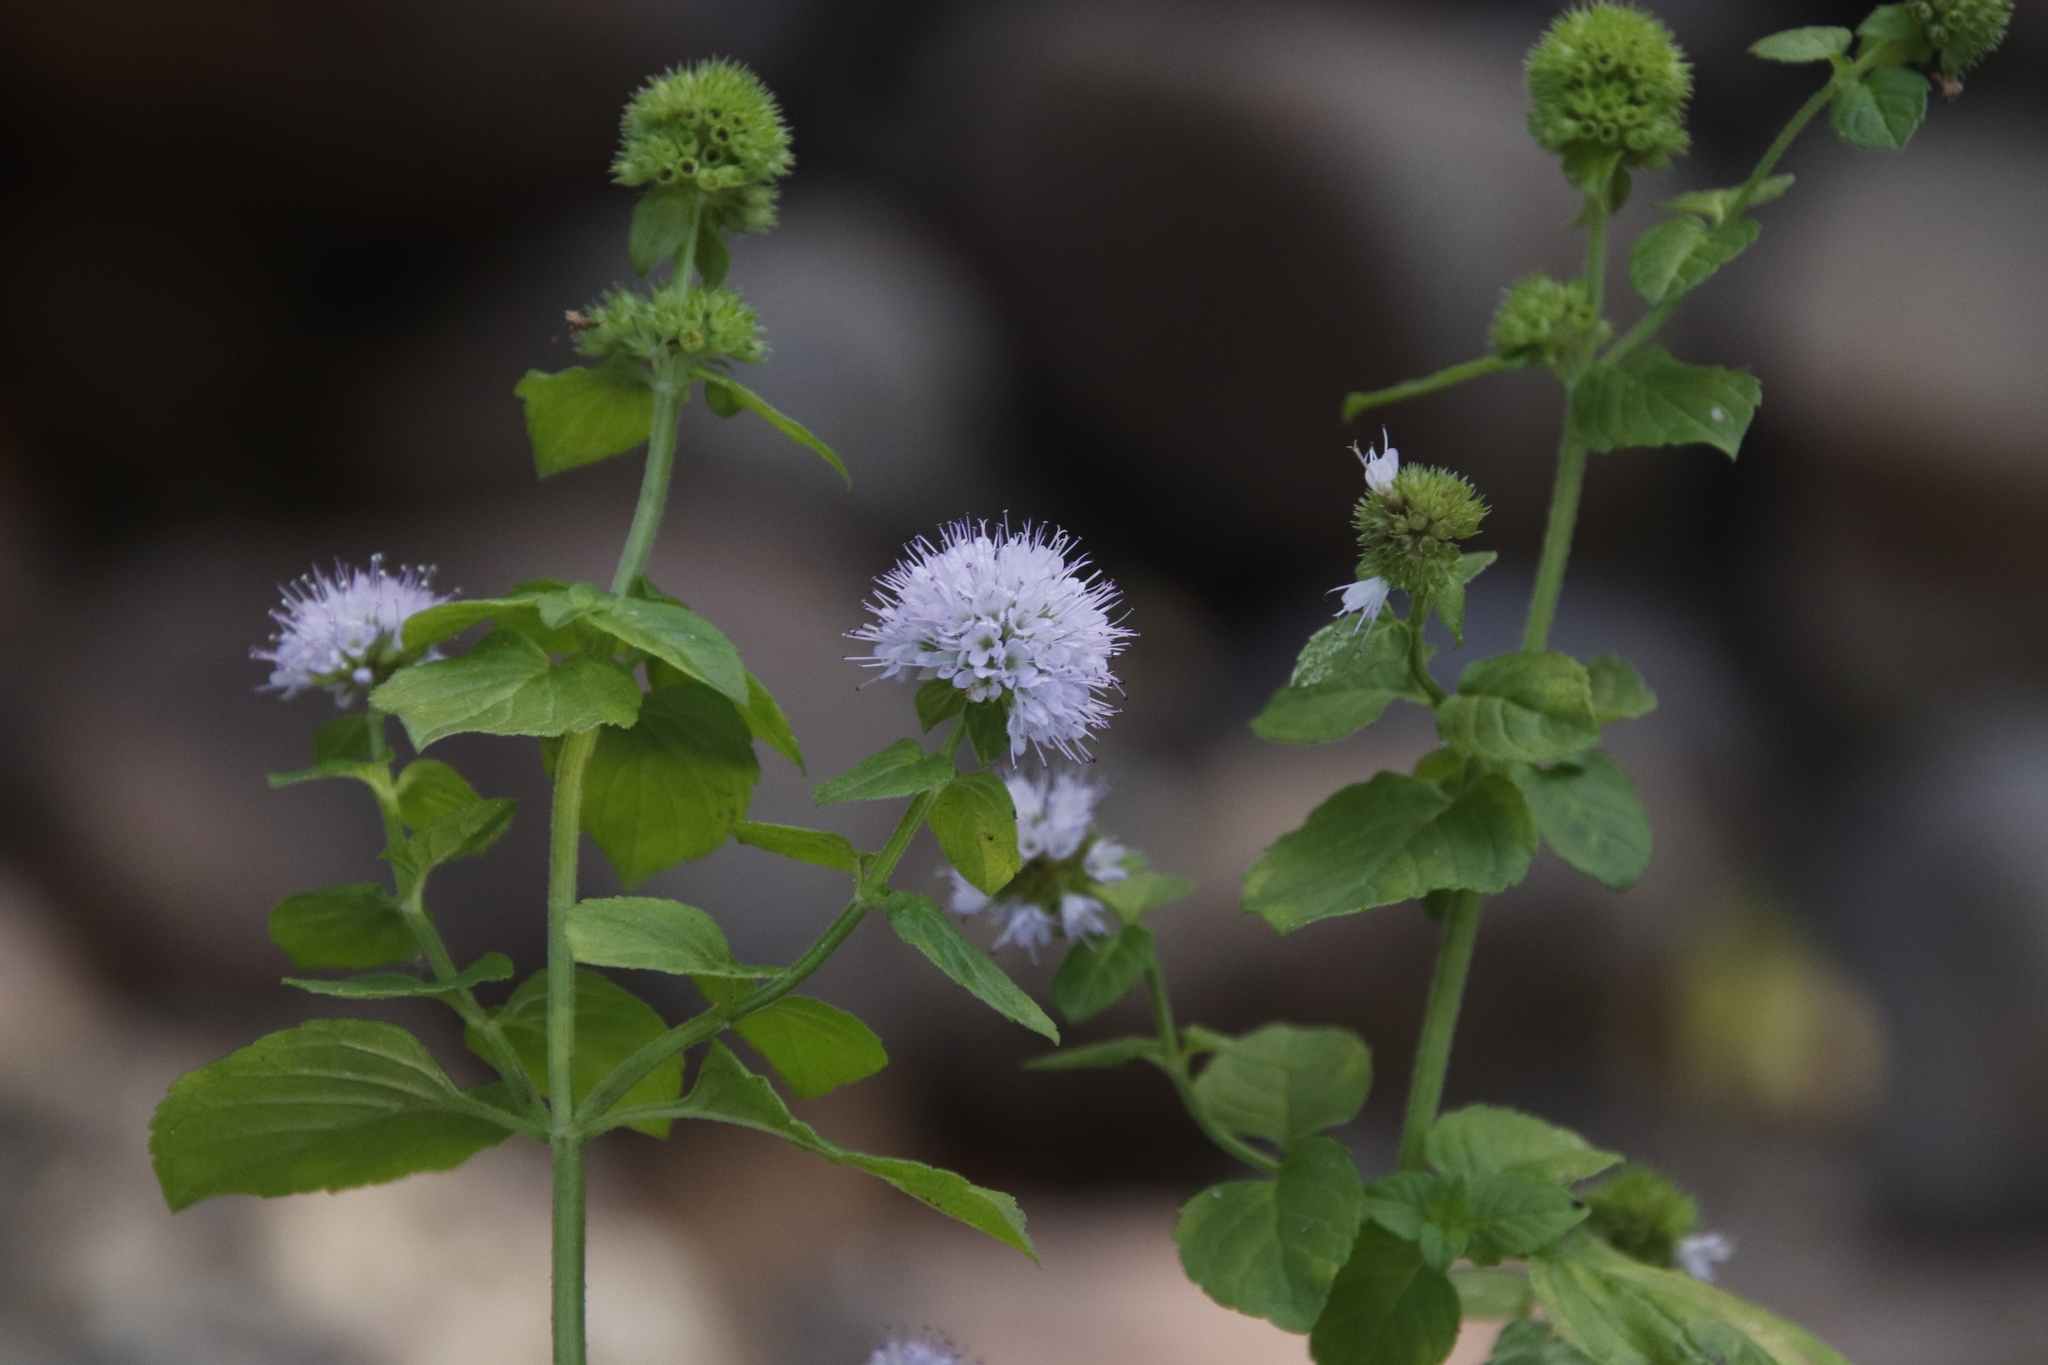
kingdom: Plantae
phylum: Tracheophyta
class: Magnoliopsida
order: Lamiales
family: Lamiaceae
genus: Mentha
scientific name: Mentha aquatica
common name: Water mint
